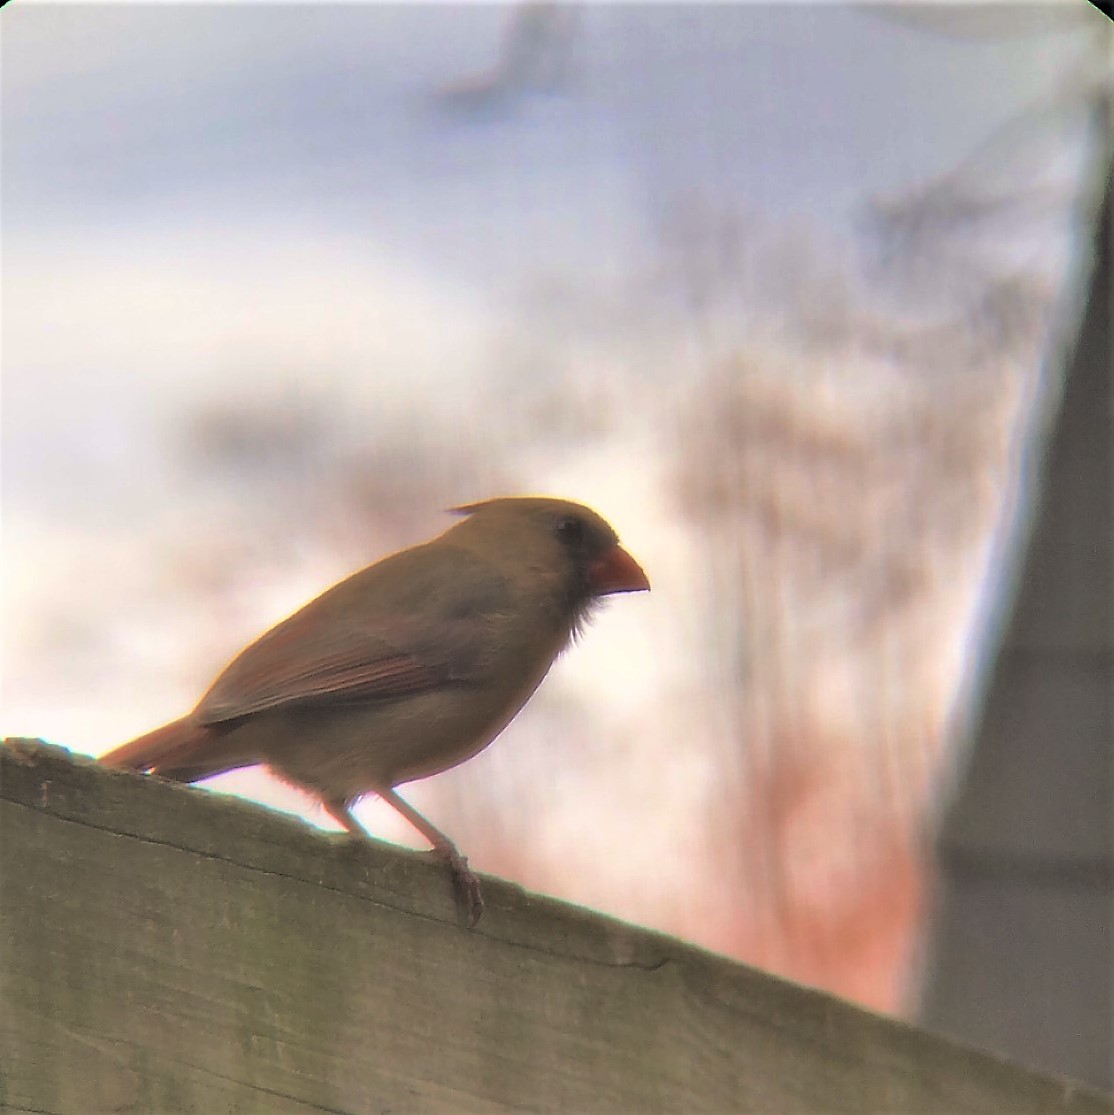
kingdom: Animalia
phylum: Chordata
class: Aves
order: Passeriformes
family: Cardinalidae
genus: Cardinalis
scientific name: Cardinalis cardinalis
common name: Northern cardinal
